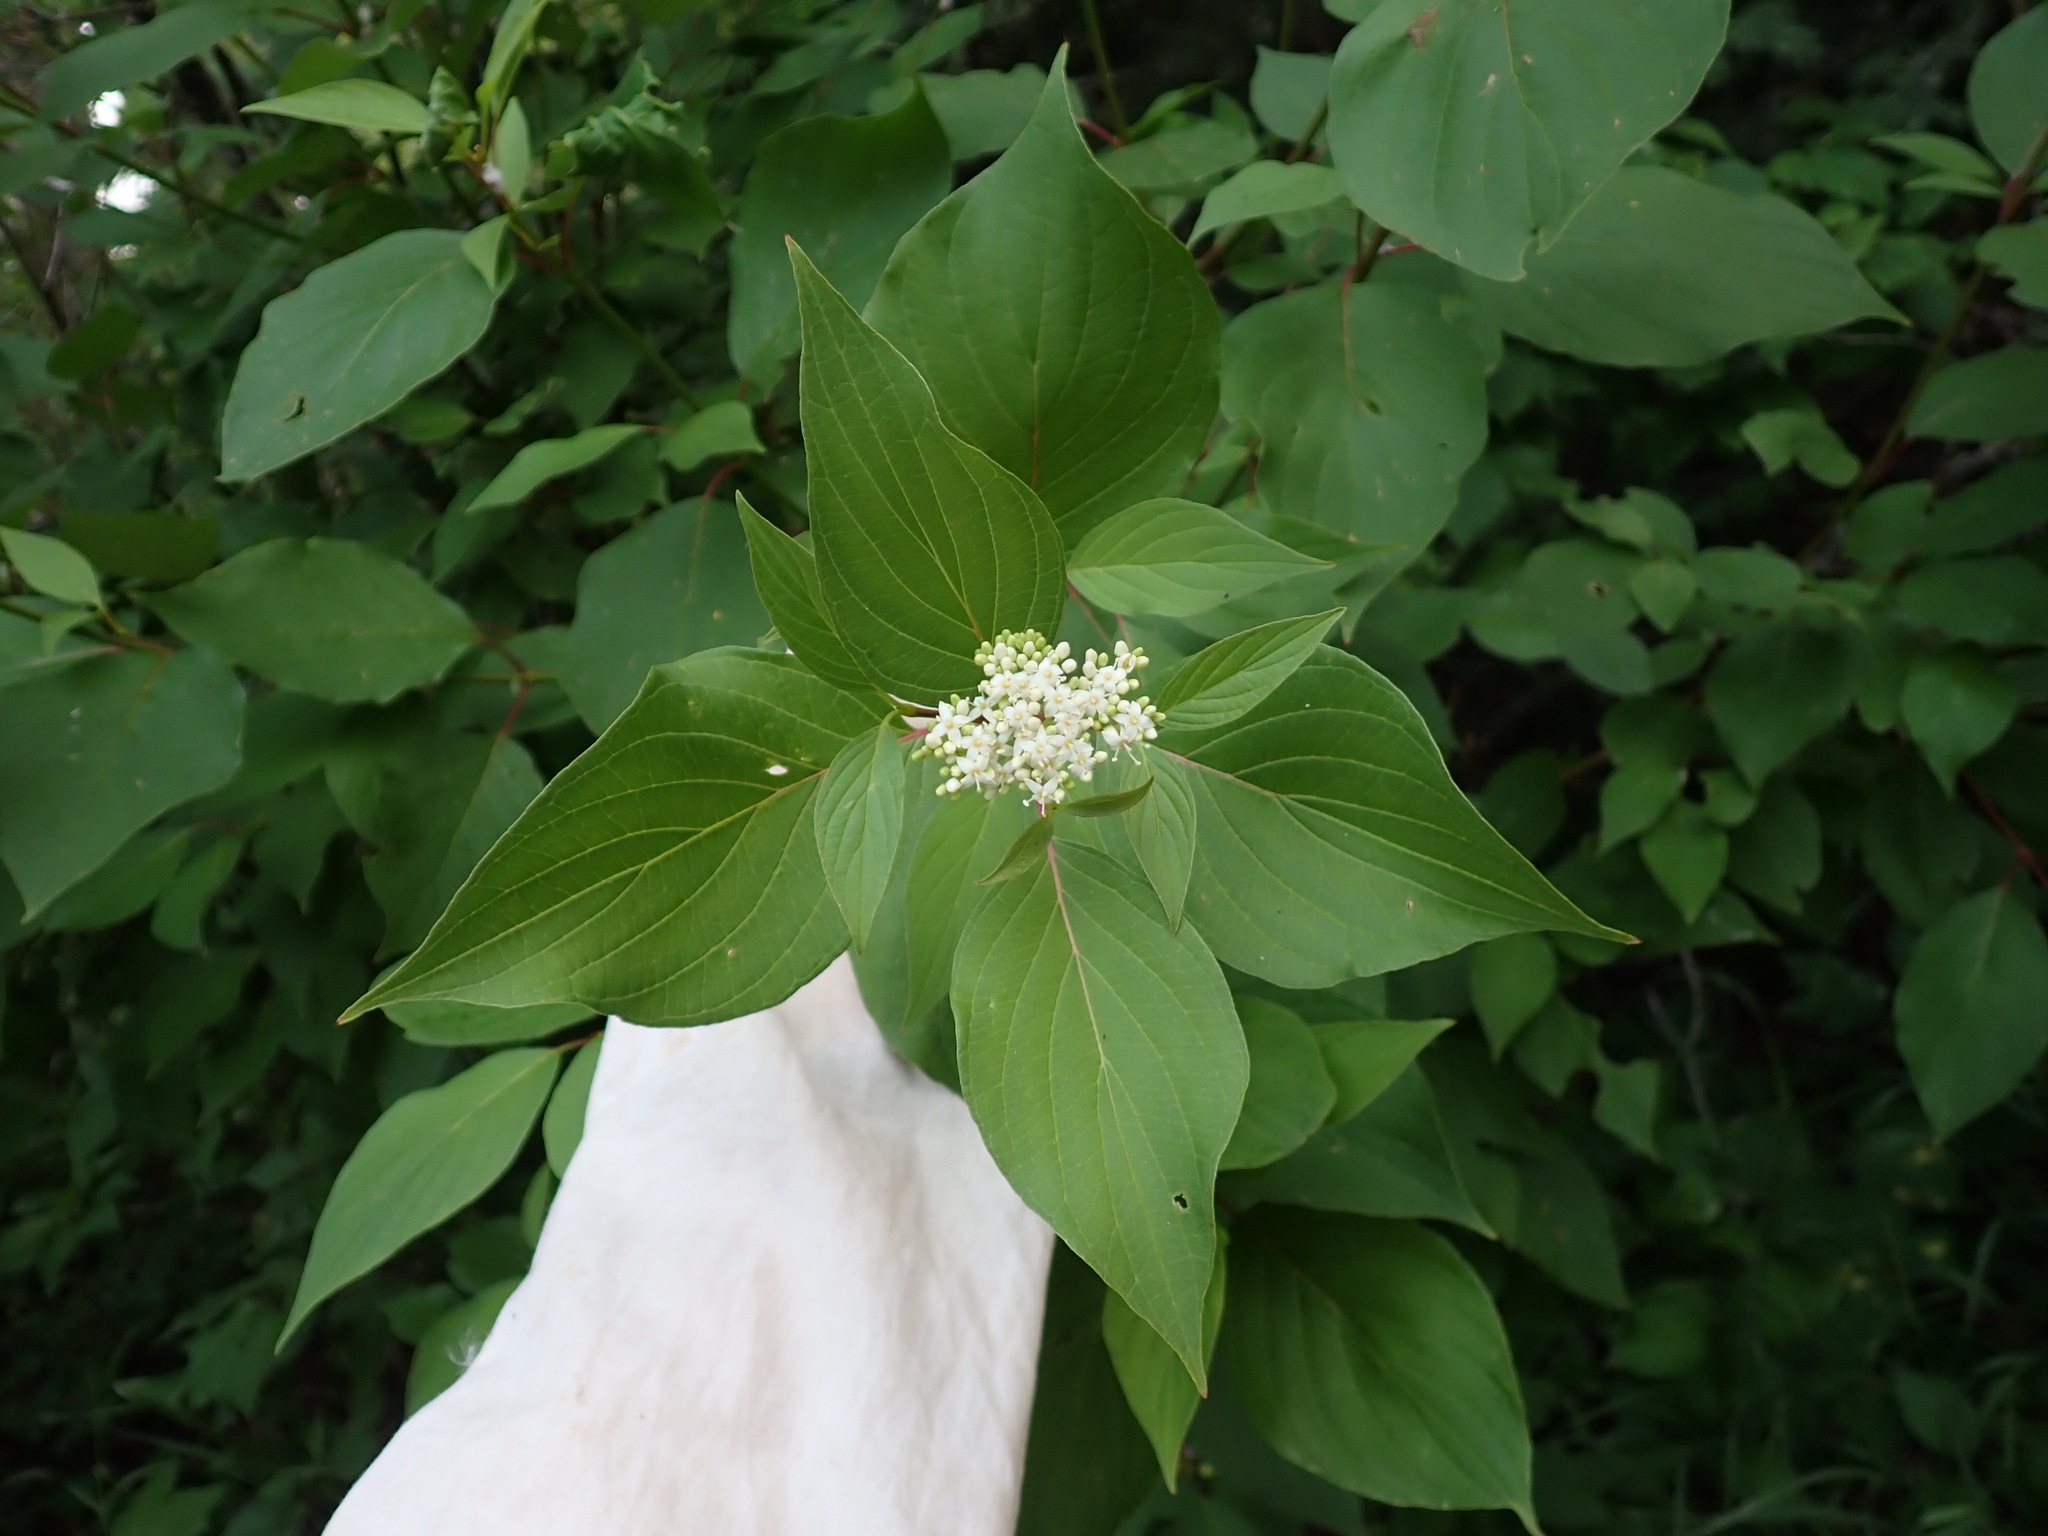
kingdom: Plantae
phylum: Tracheophyta
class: Magnoliopsida
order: Cornales
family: Cornaceae
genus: Cornus
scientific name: Cornus sericea
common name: Red-osier dogwood
